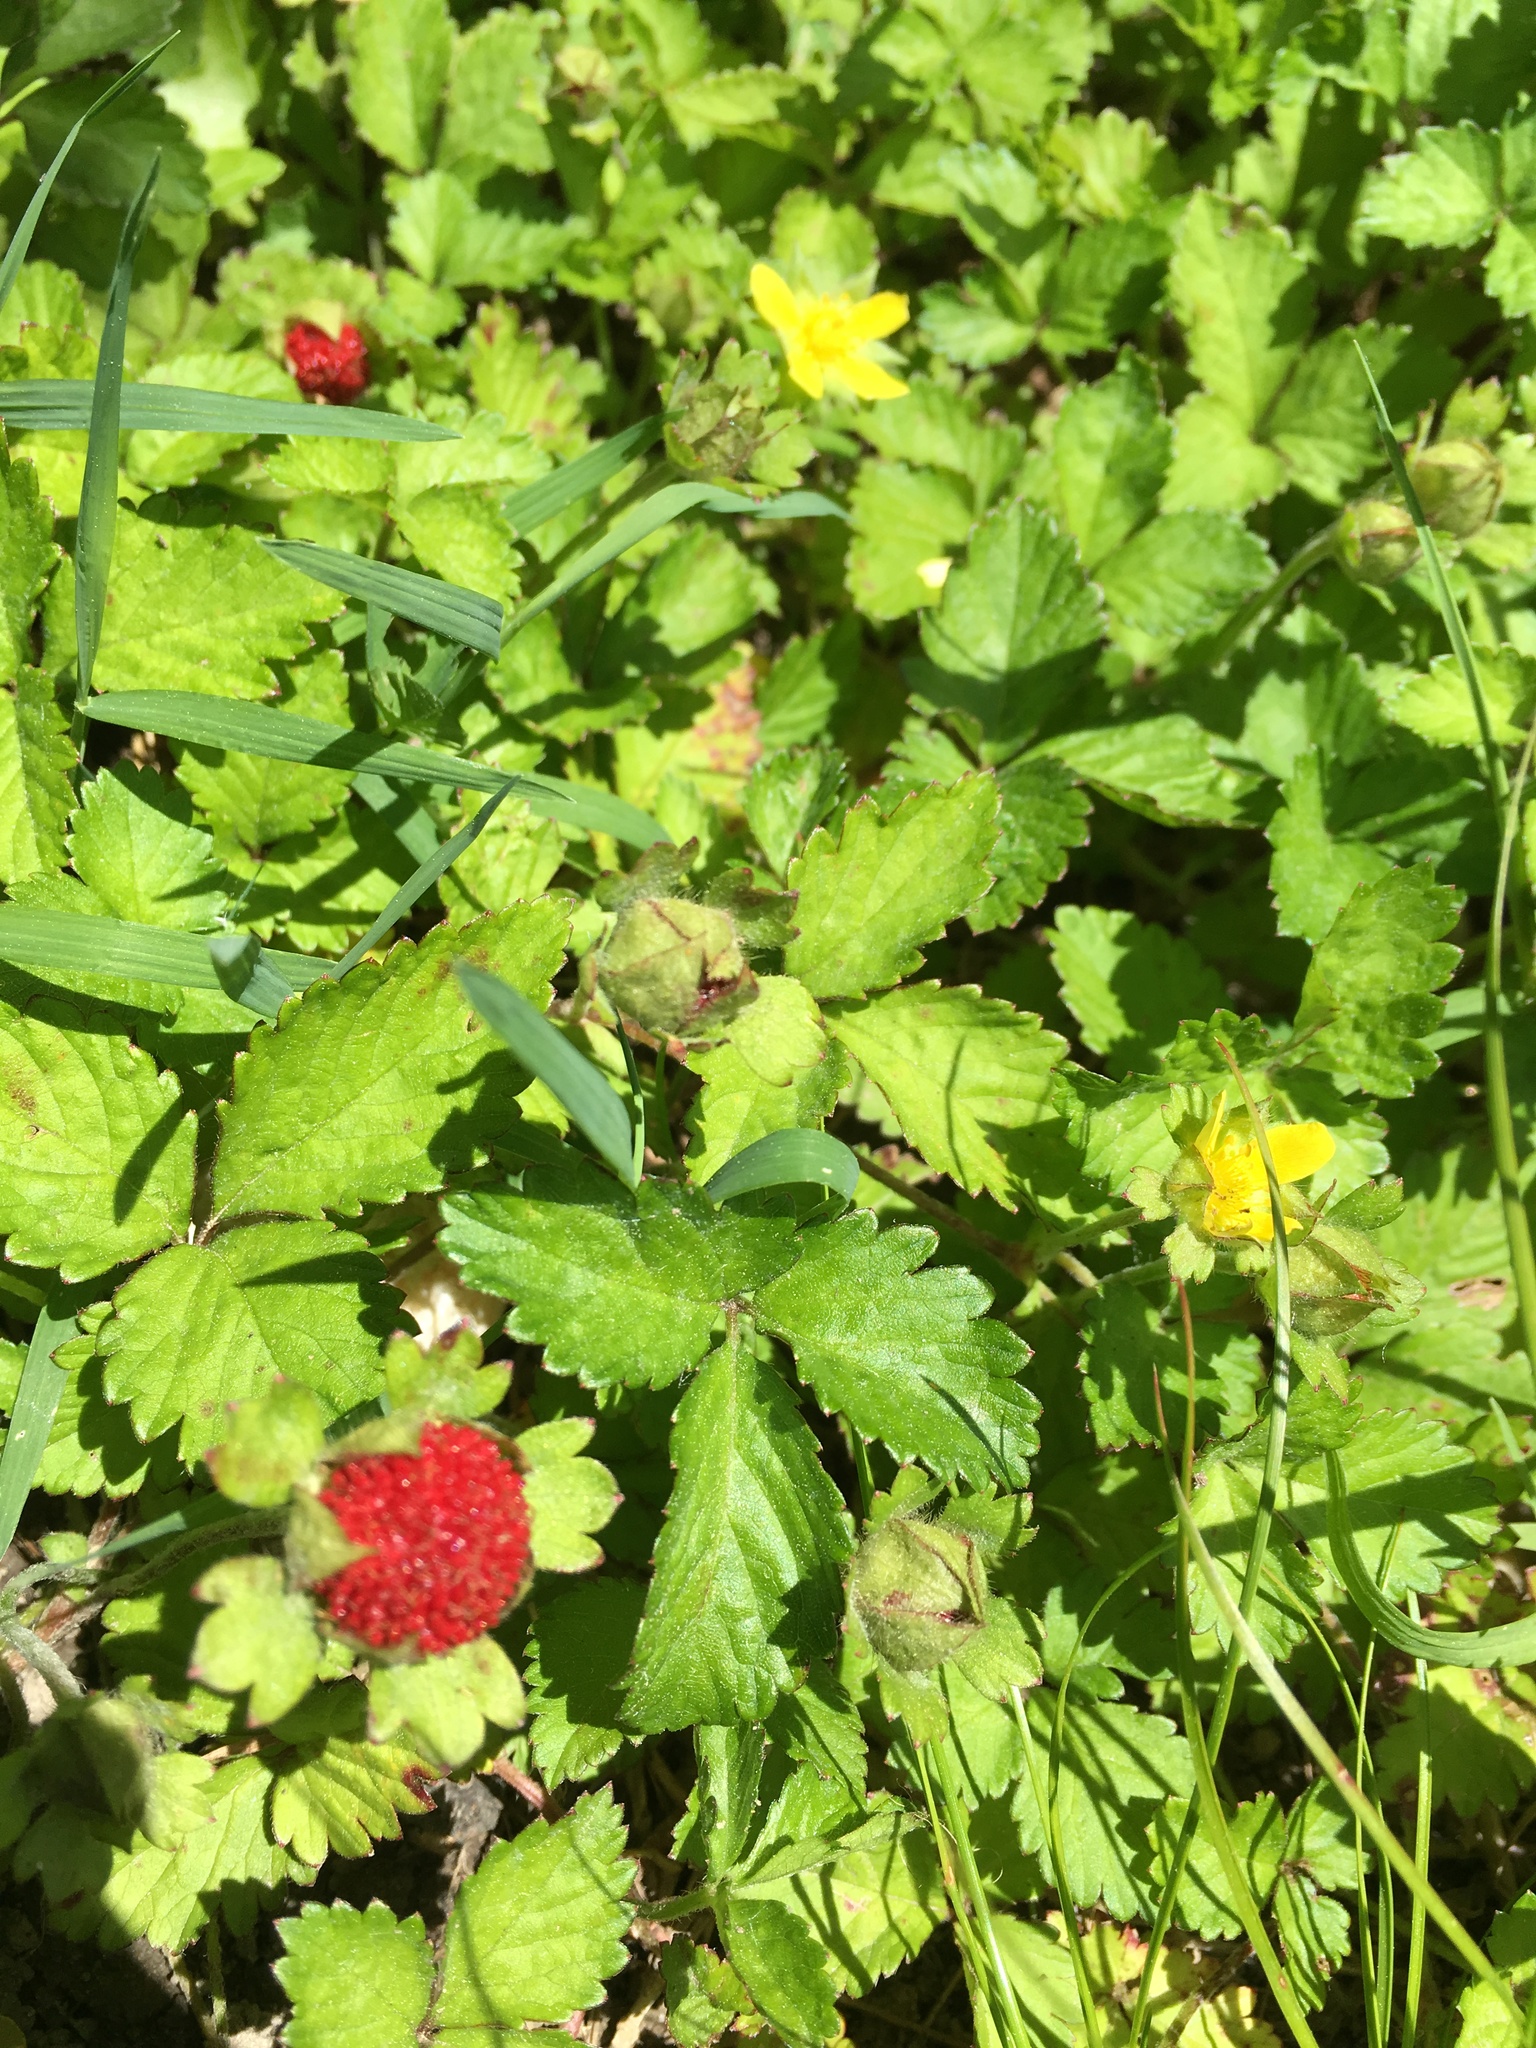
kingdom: Plantae
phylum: Tracheophyta
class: Magnoliopsida
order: Rosales
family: Rosaceae
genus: Potentilla
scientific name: Potentilla indica
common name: Yellow-flowered strawberry
